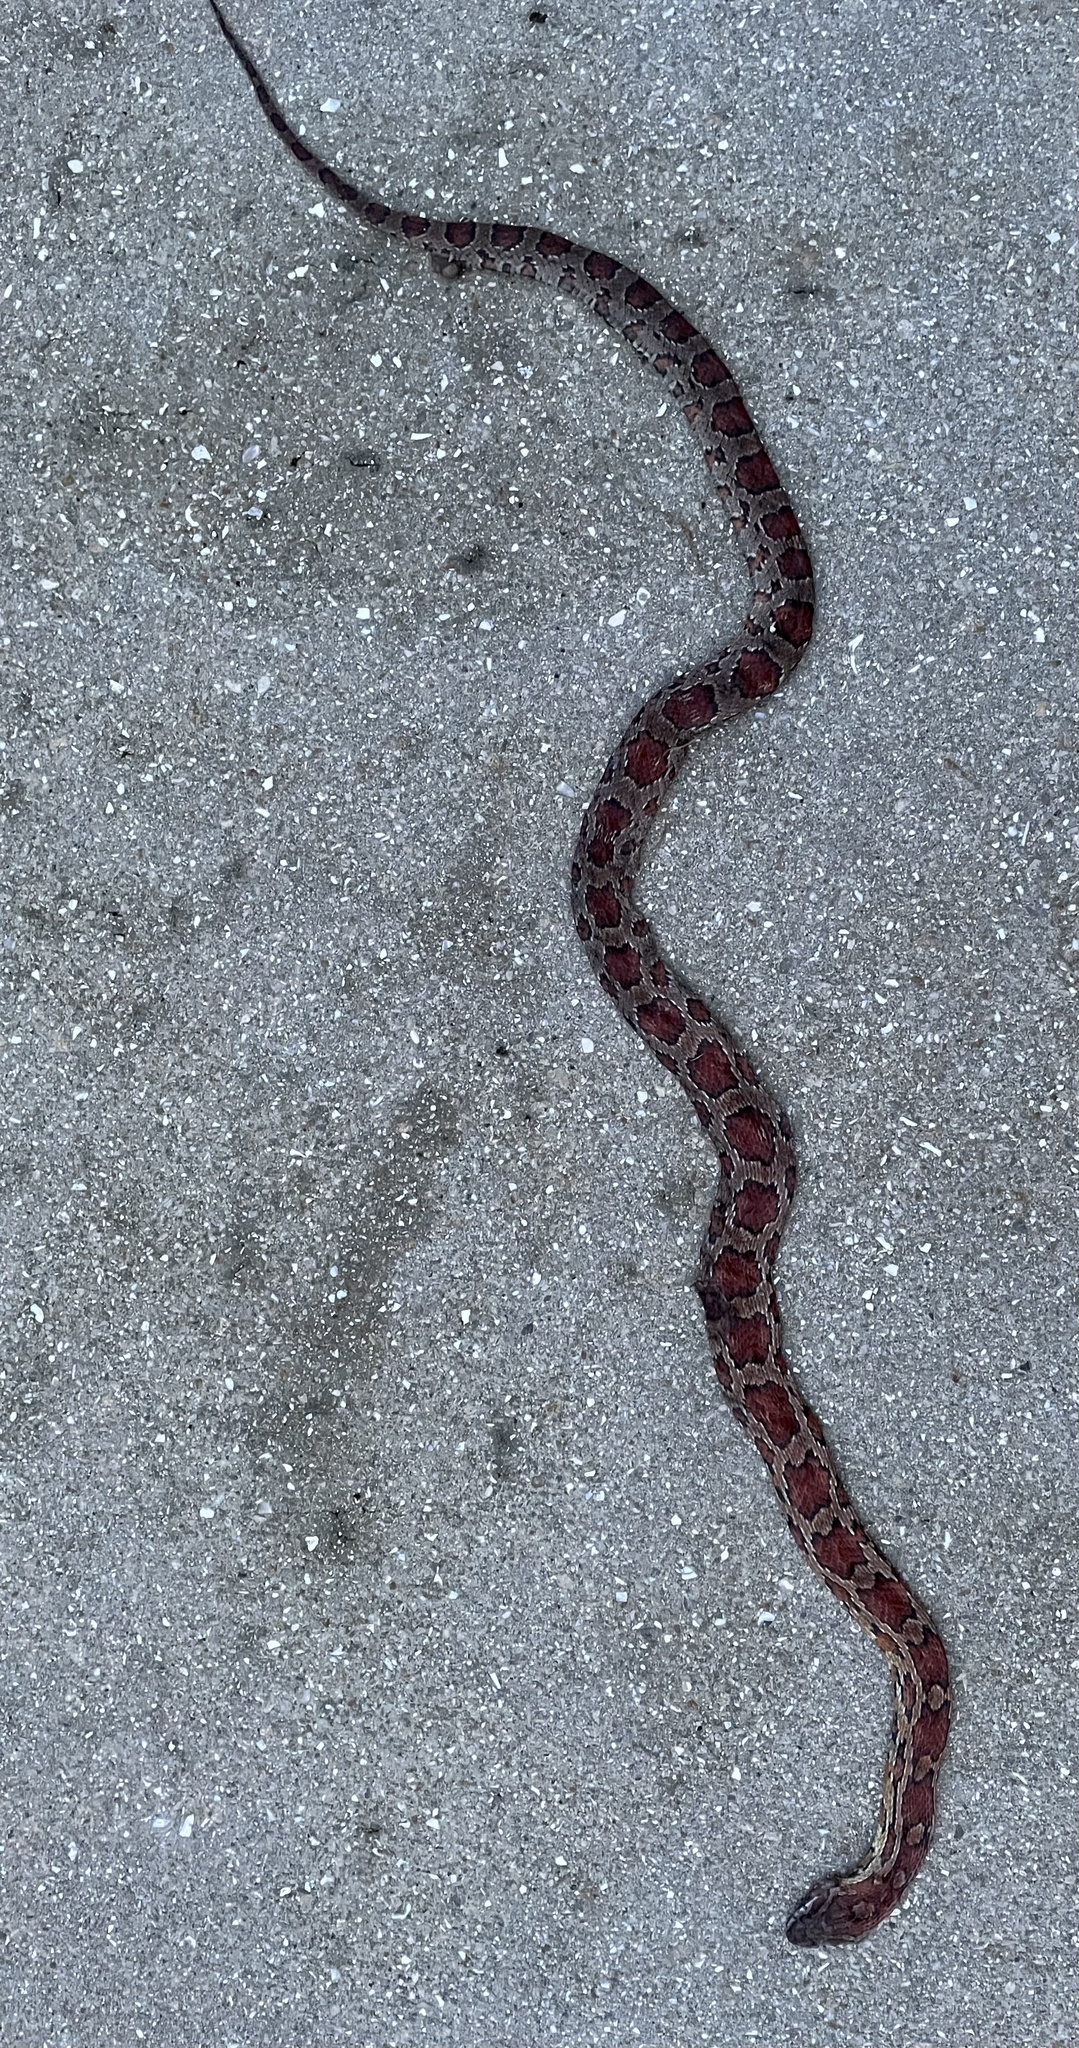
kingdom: Animalia
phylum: Chordata
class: Squamata
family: Colubridae
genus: Pantherophis
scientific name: Pantherophis guttatus
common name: Red cornsnake
